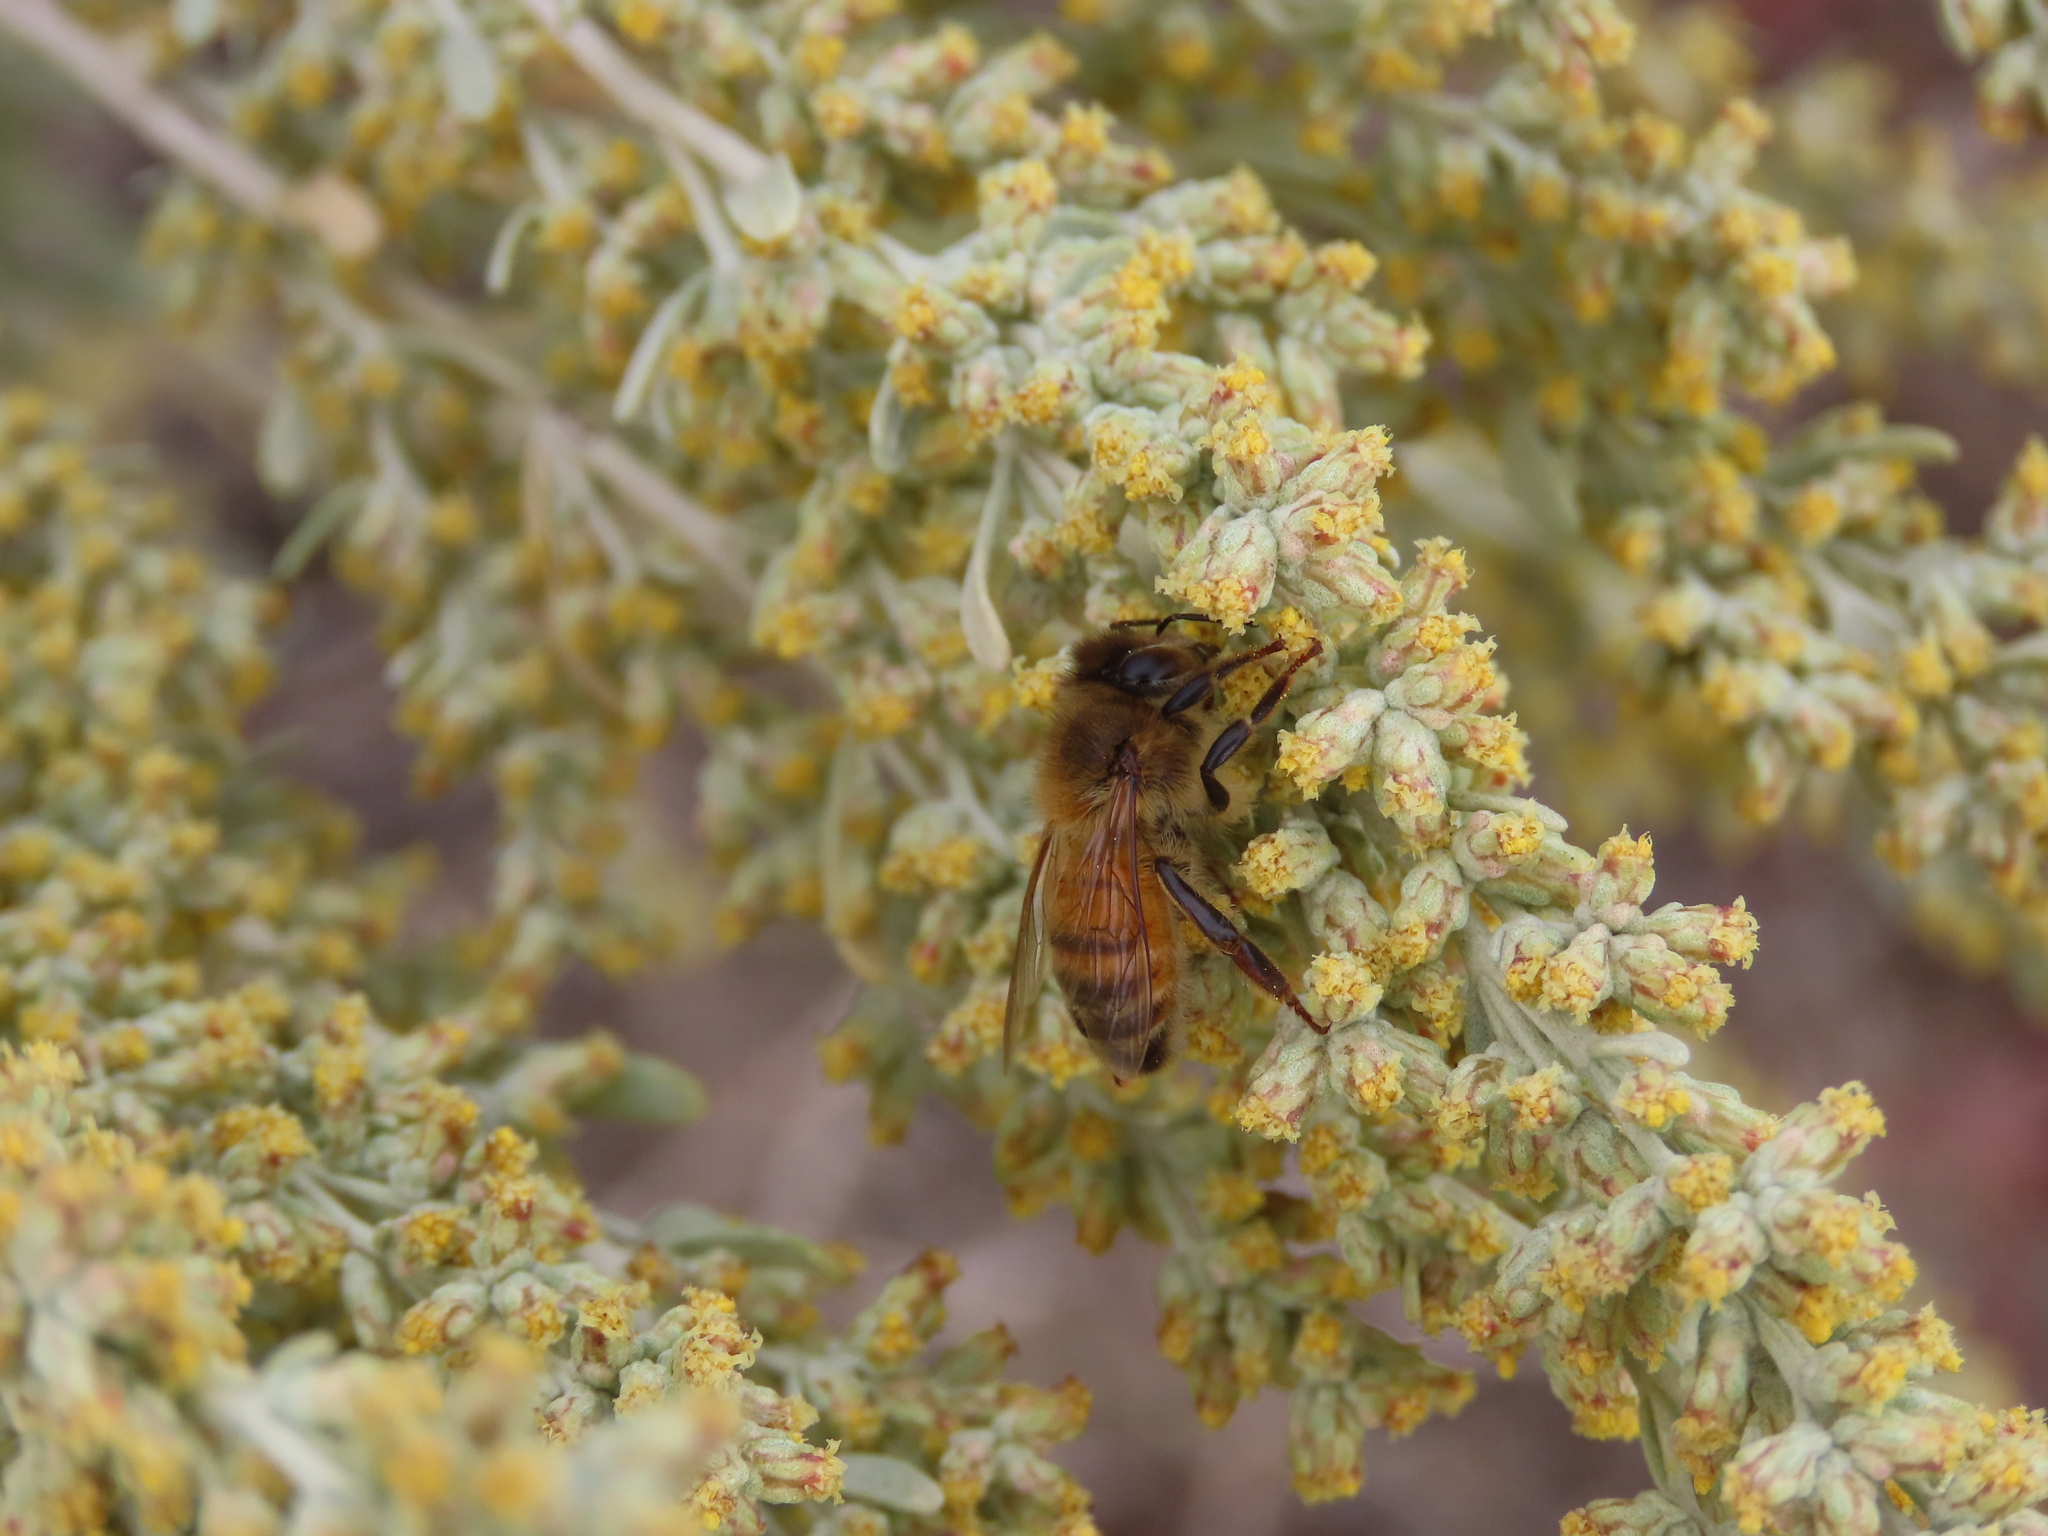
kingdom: Animalia
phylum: Arthropoda
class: Insecta
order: Hymenoptera
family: Apidae
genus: Apis
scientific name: Apis mellifera
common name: Honey bee
